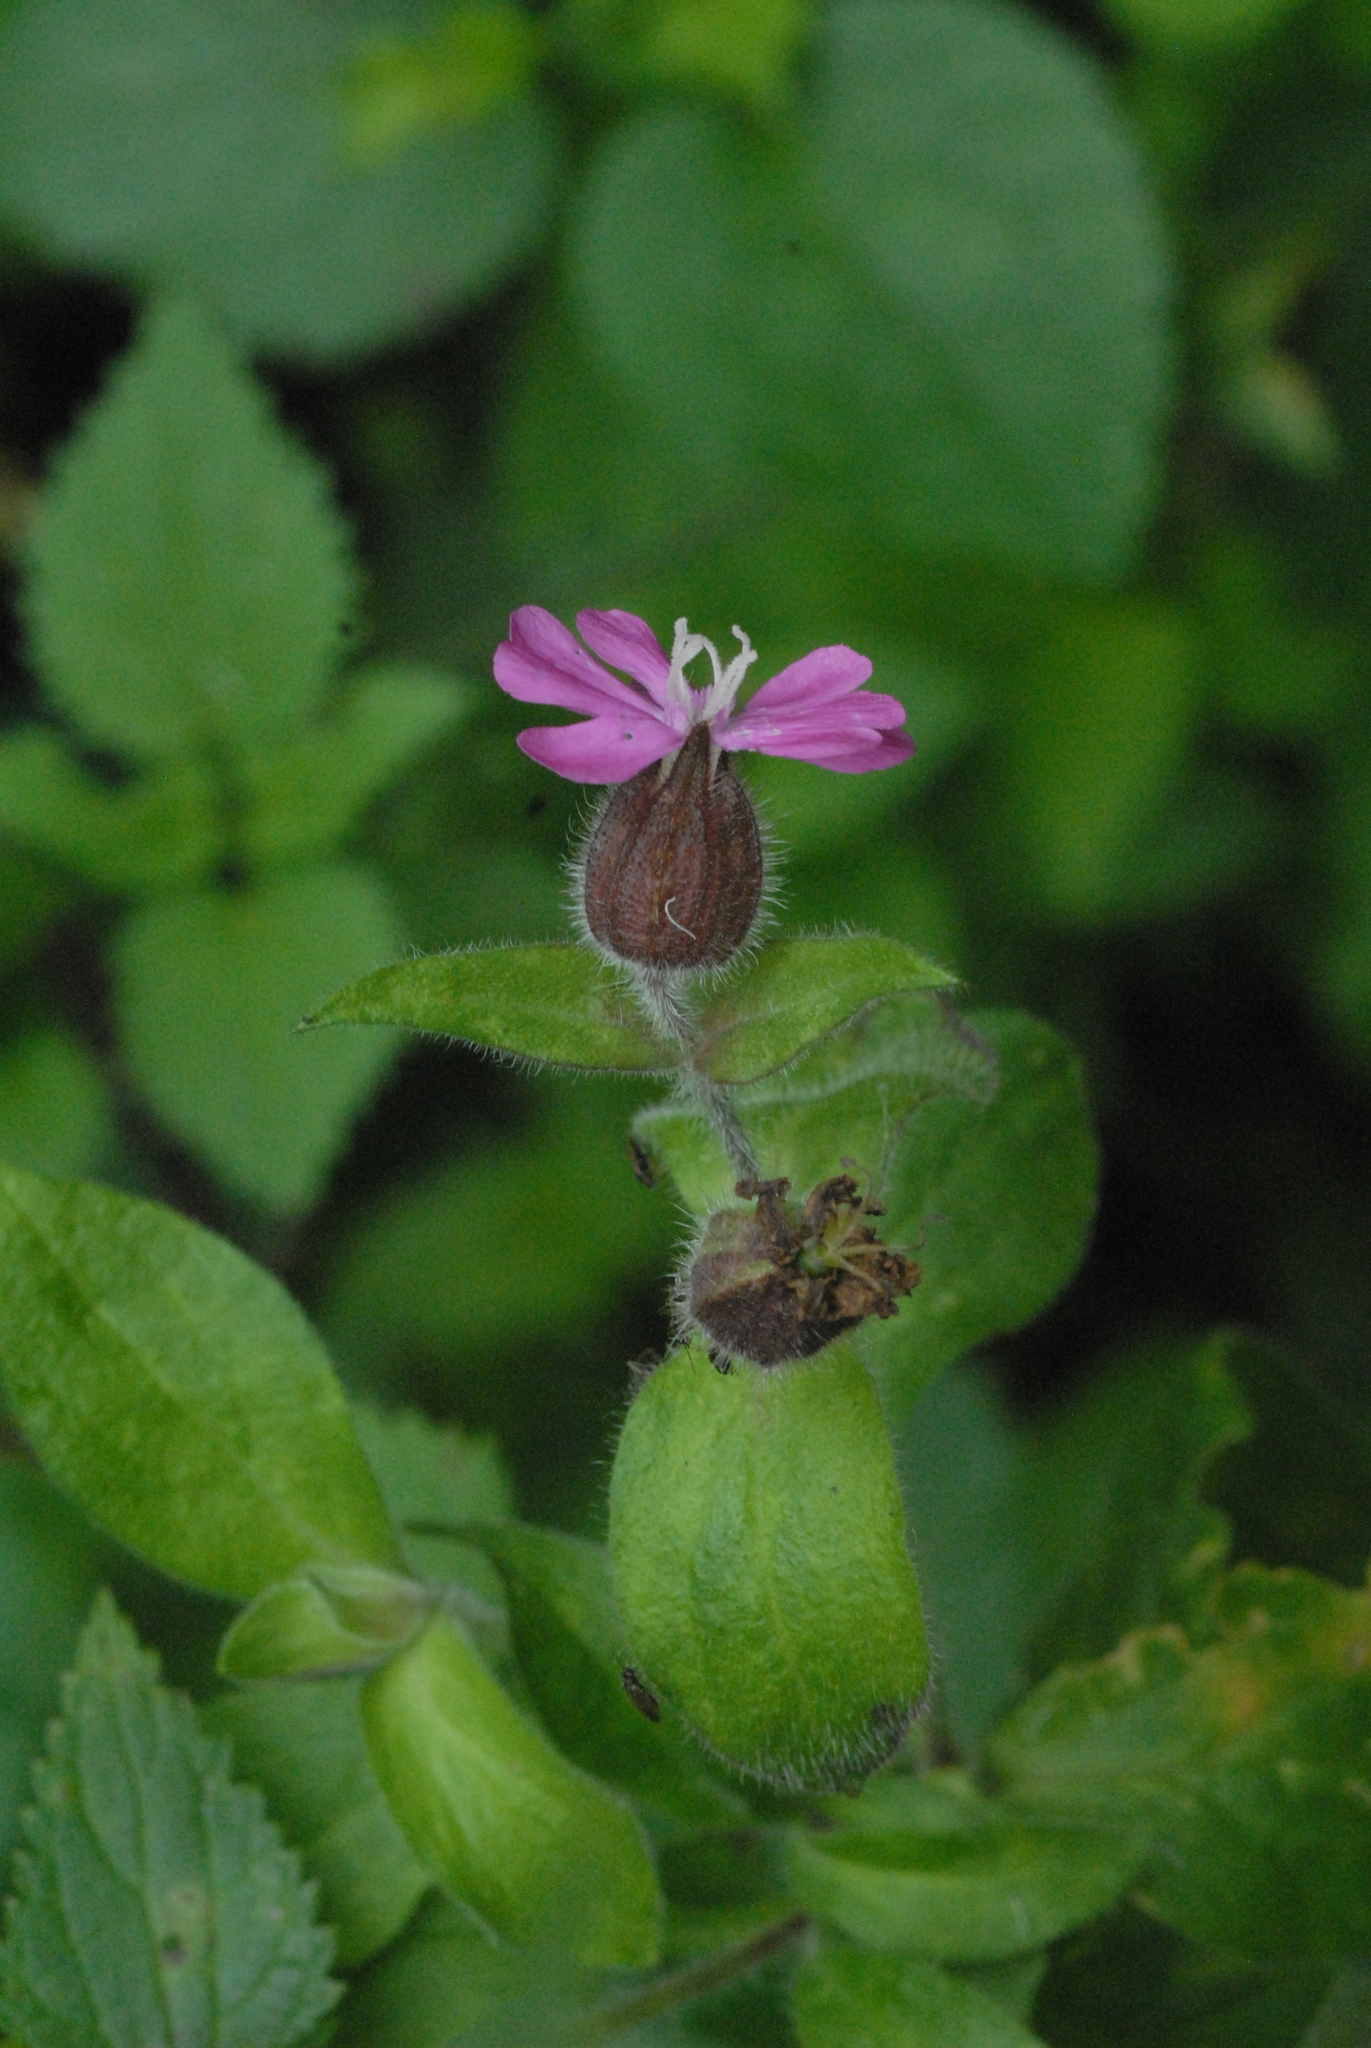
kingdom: Plantae
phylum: Tracheophyta
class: Magnoliopsida
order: Caryophyllales
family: Caryophyllaceae
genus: Silene
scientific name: Silene dioica
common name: Red campion
